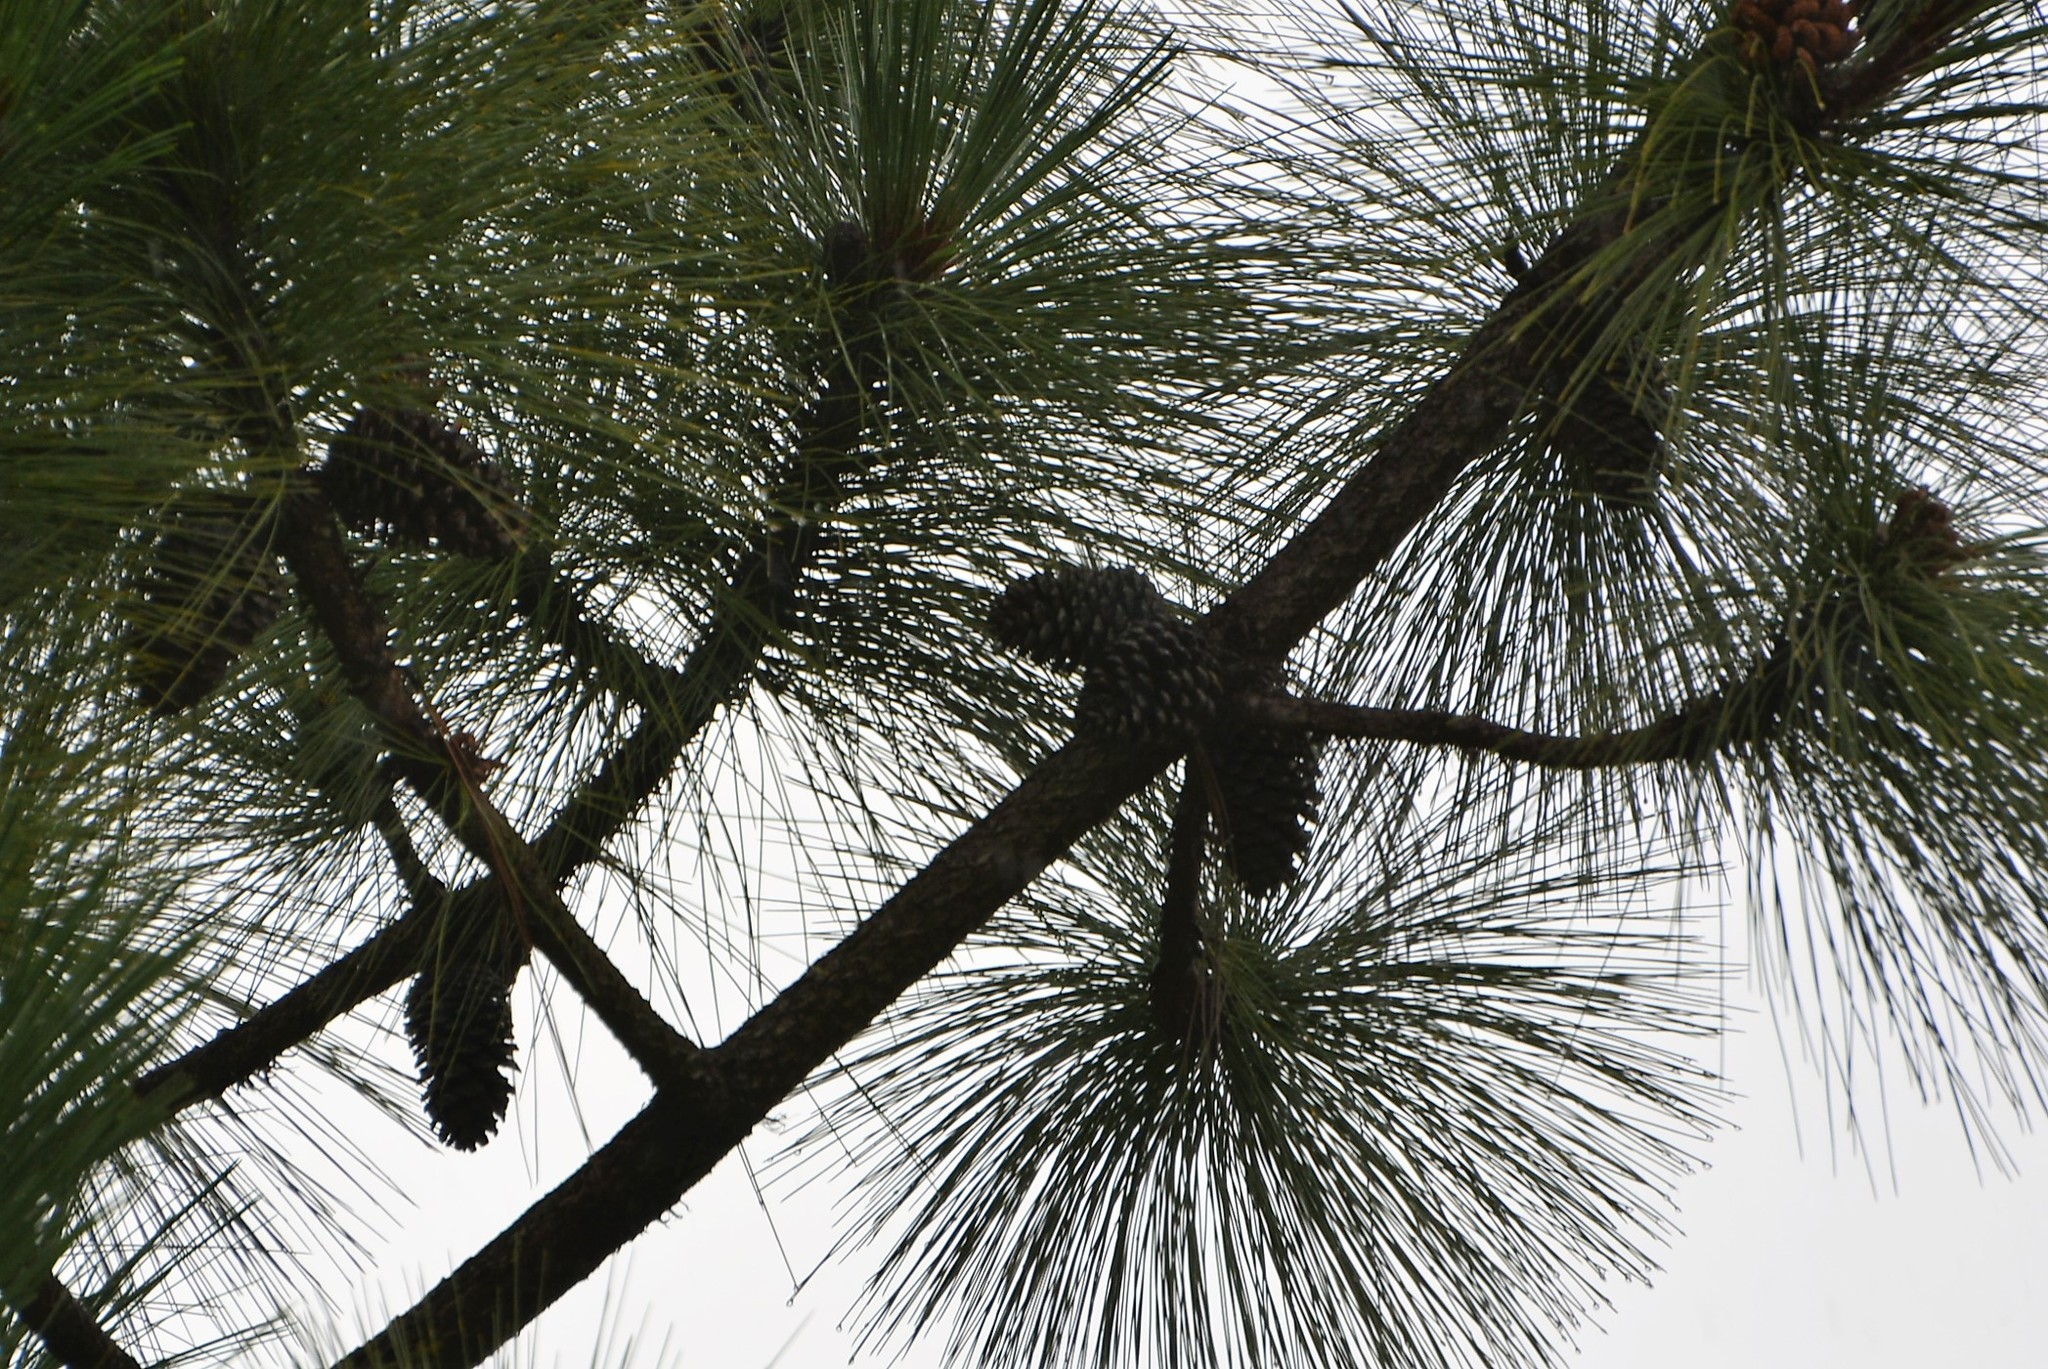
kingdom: Plantae
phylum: Tracheophyta
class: Pinopsida
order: Pinales
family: Pinaceae
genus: Pinus
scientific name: Pinus montezumae
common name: Montezuma pine
